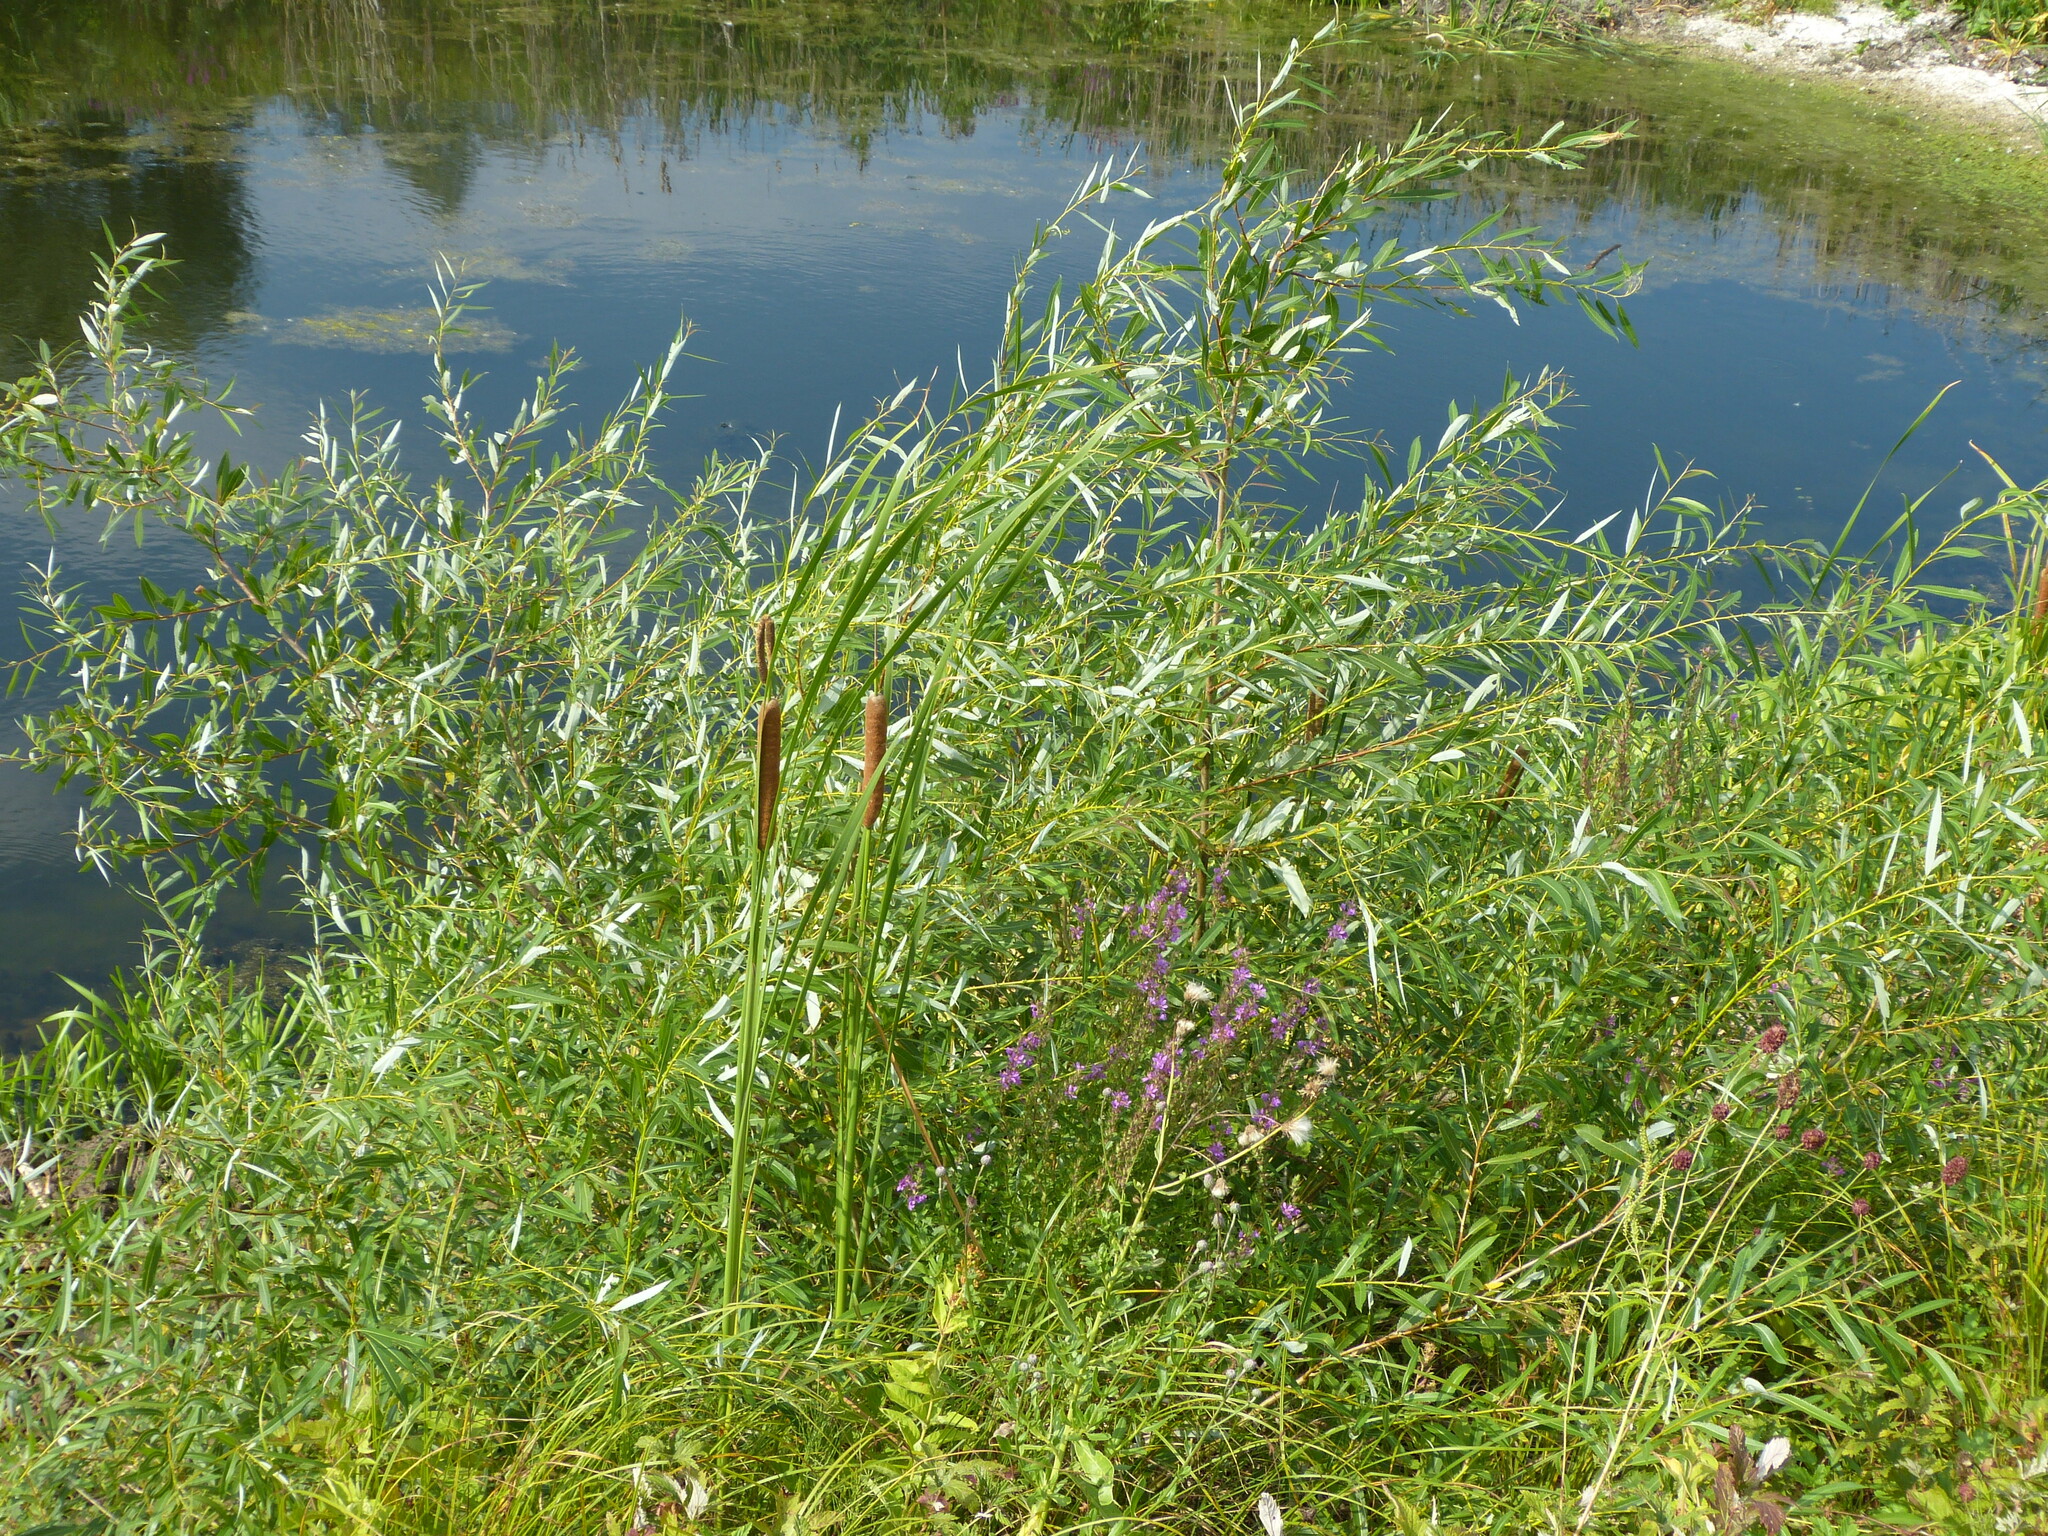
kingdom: Plantae
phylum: Tracheophyta
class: Magnoliopsida
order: Malpighiales
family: Salicaceae
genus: Salix
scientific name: Salix alba
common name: White willow
